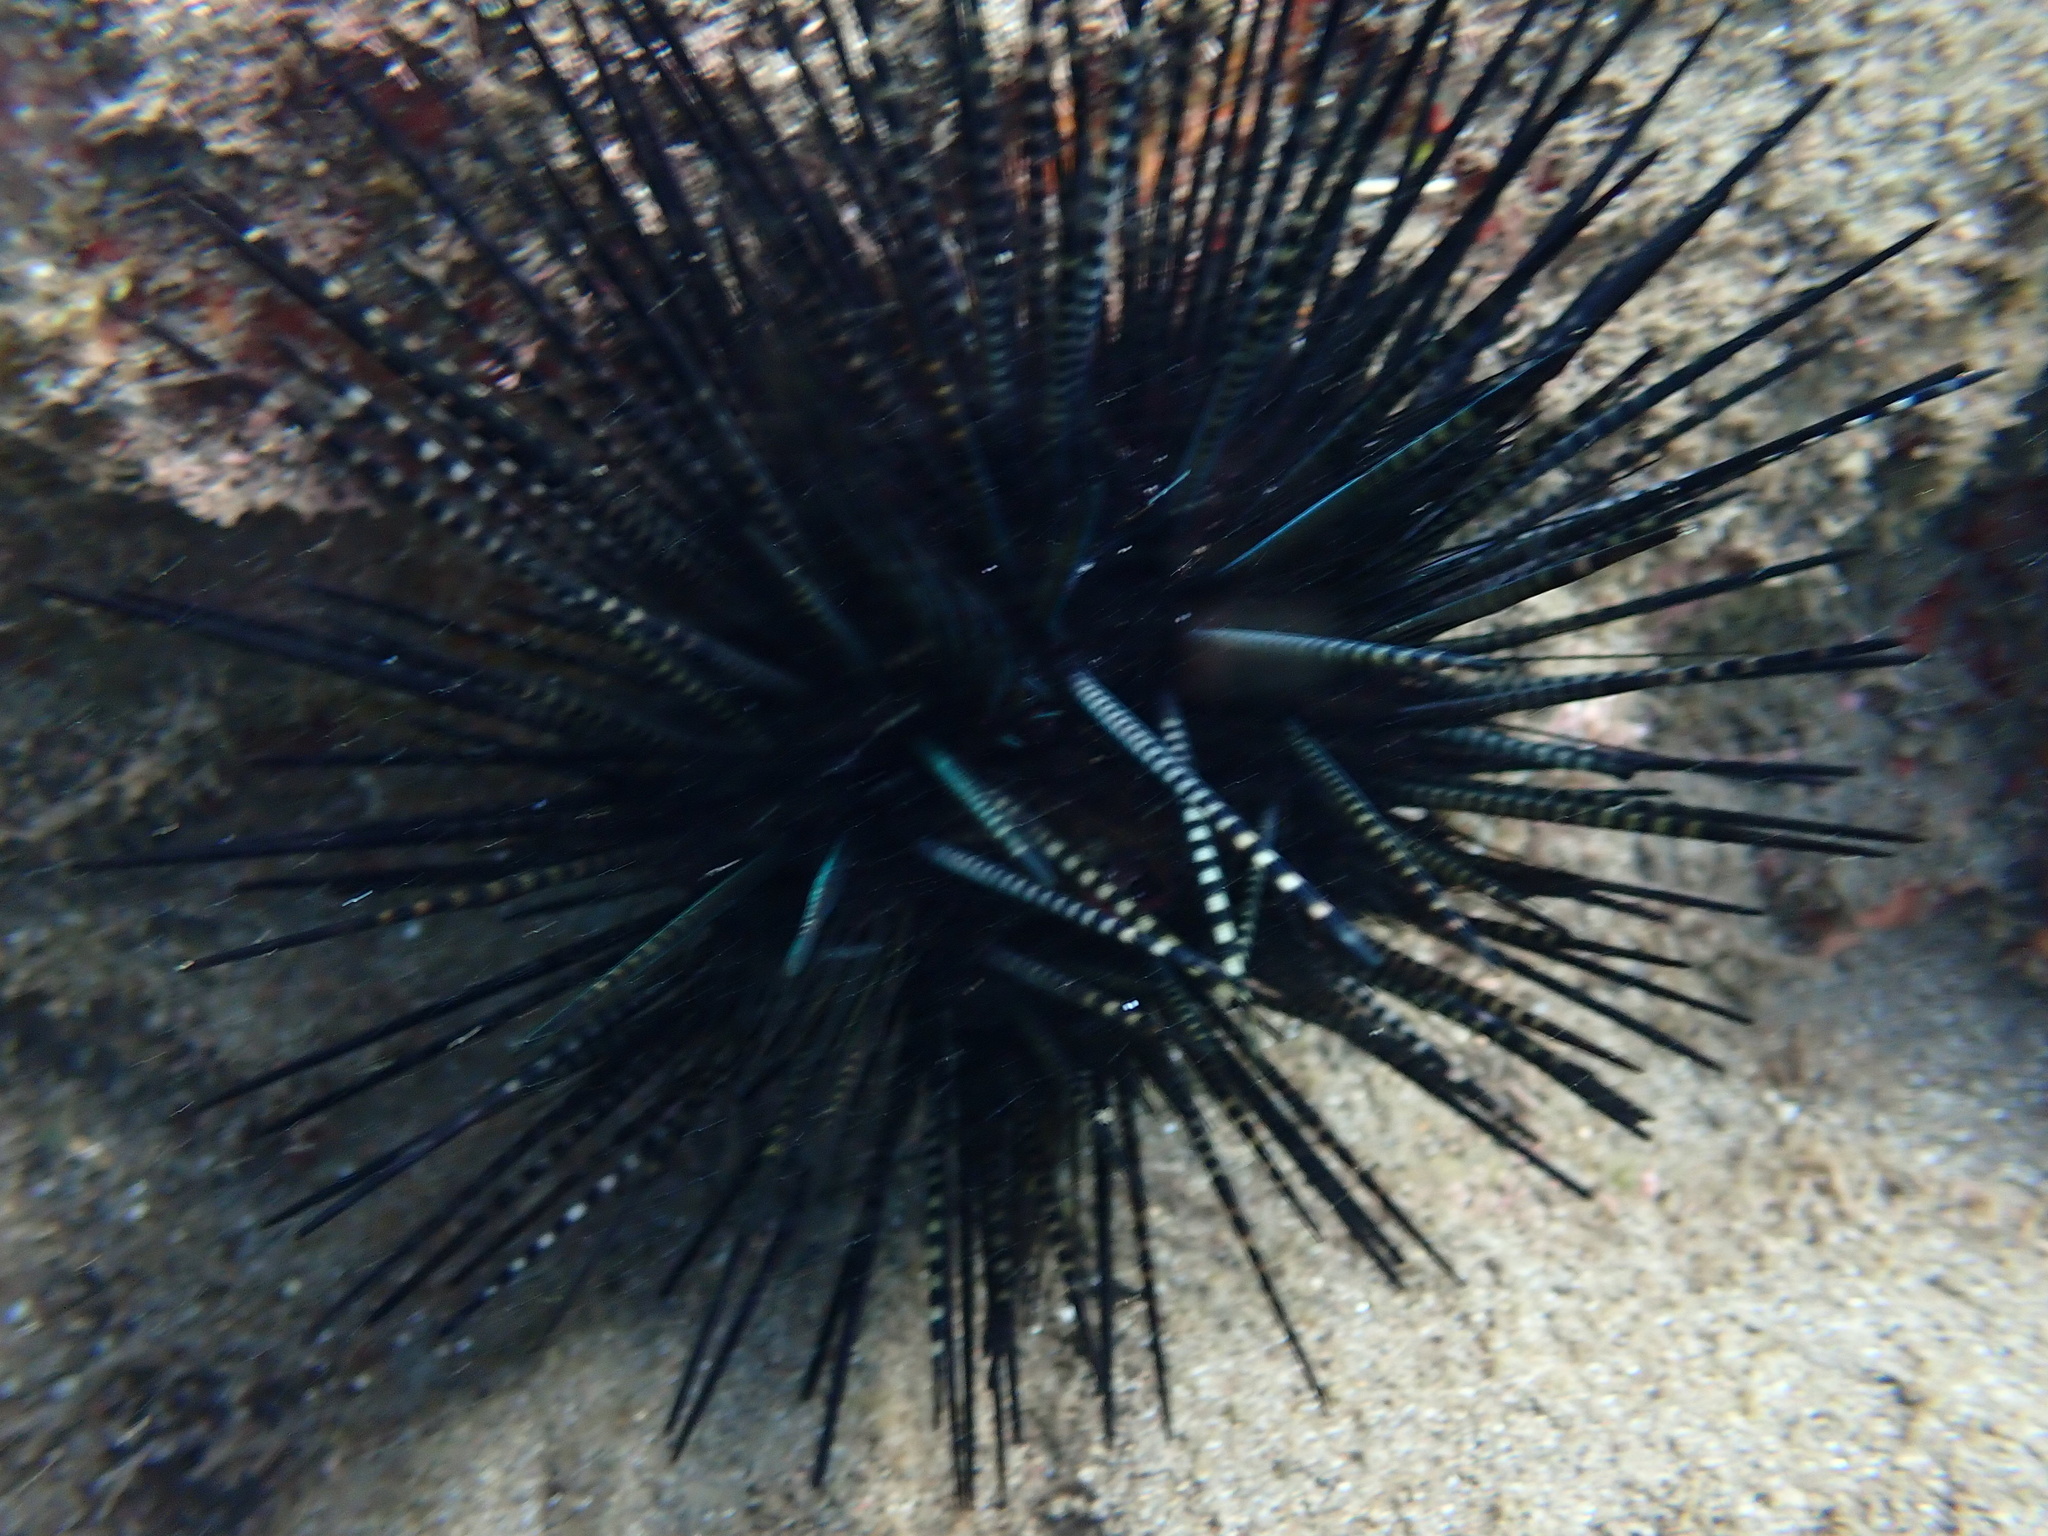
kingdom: Animalia
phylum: Echinodermata
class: Echinoidea
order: Diadematoida
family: Diadematidae
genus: Echinothrix
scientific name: Echinothrix calamaris
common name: Banded sea urchin
